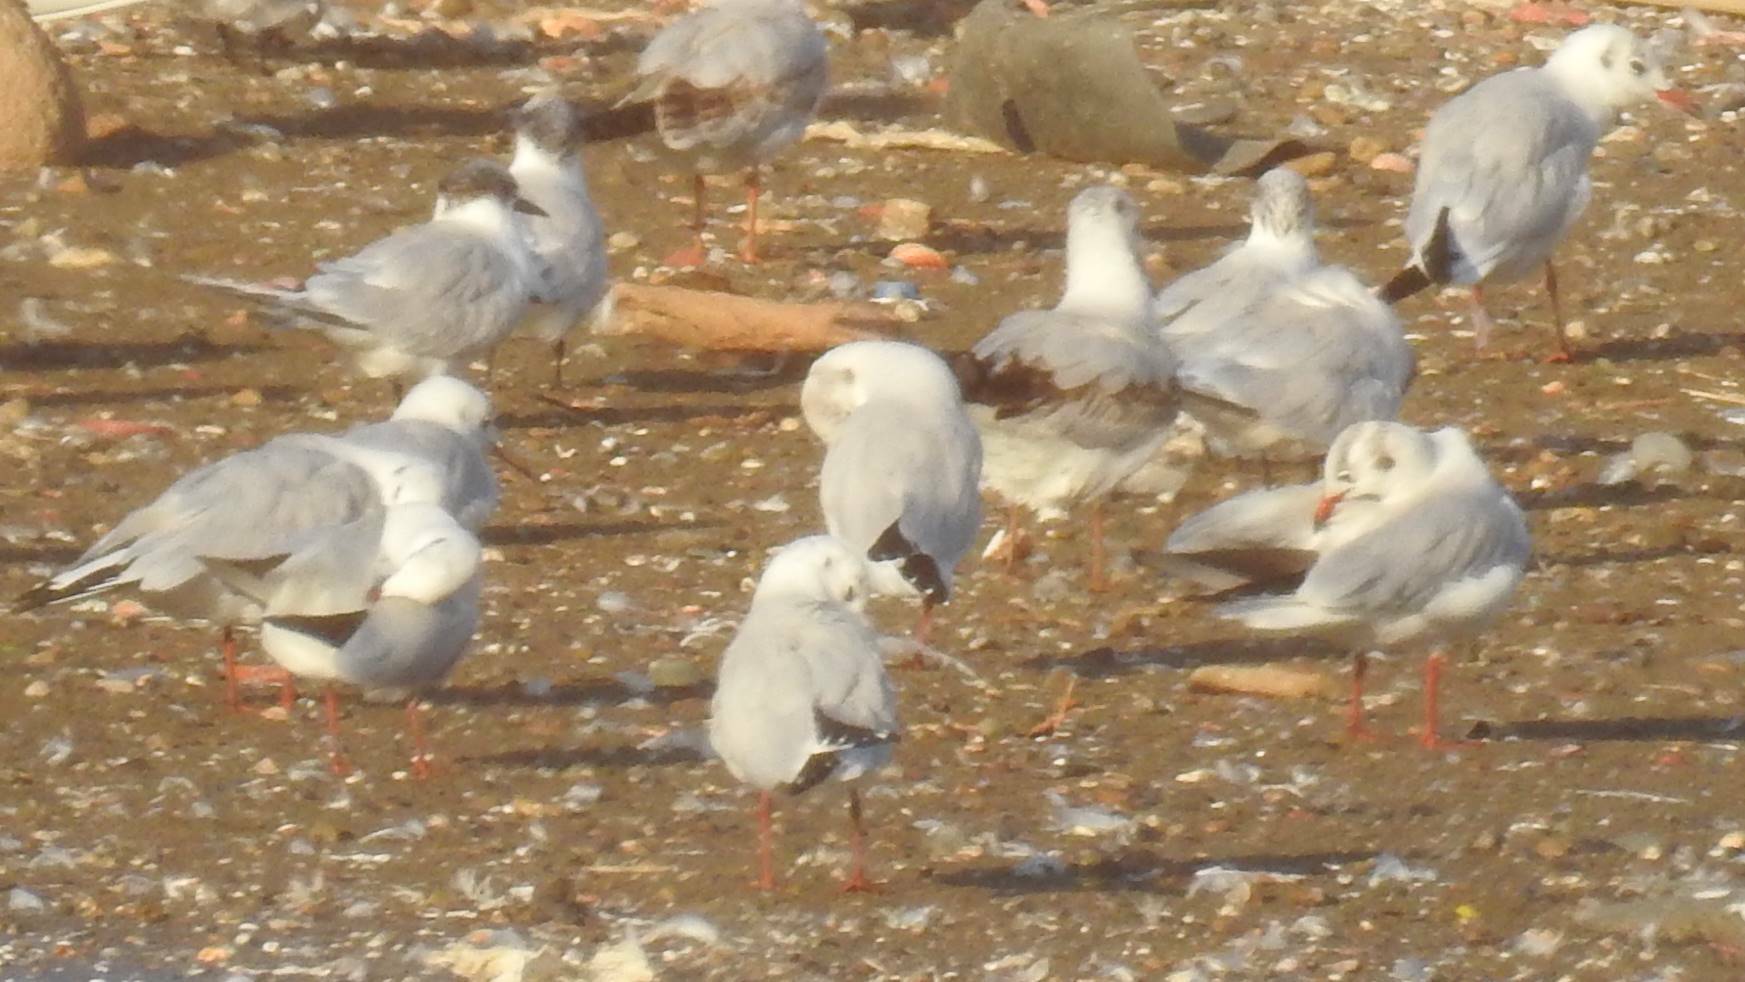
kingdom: Animalia
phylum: Chordata
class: Aves
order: Charadriiformes
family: Laridae
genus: Chroicocephalus
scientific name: Chroicocephalus genei
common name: Slender-billed gull
